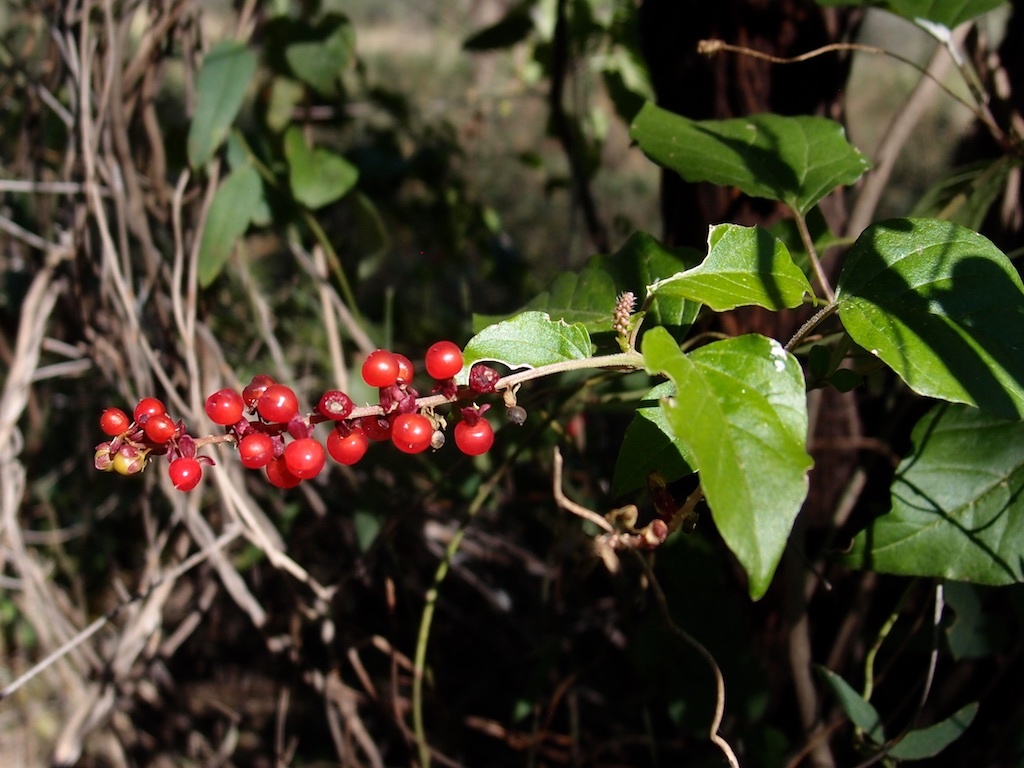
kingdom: Plantae
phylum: Tracheophyta
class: Magnoliopsida
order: Caryophyllales
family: Phytolaccaceae
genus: Rivina
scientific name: Rivina humilis
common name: Rougeplant
